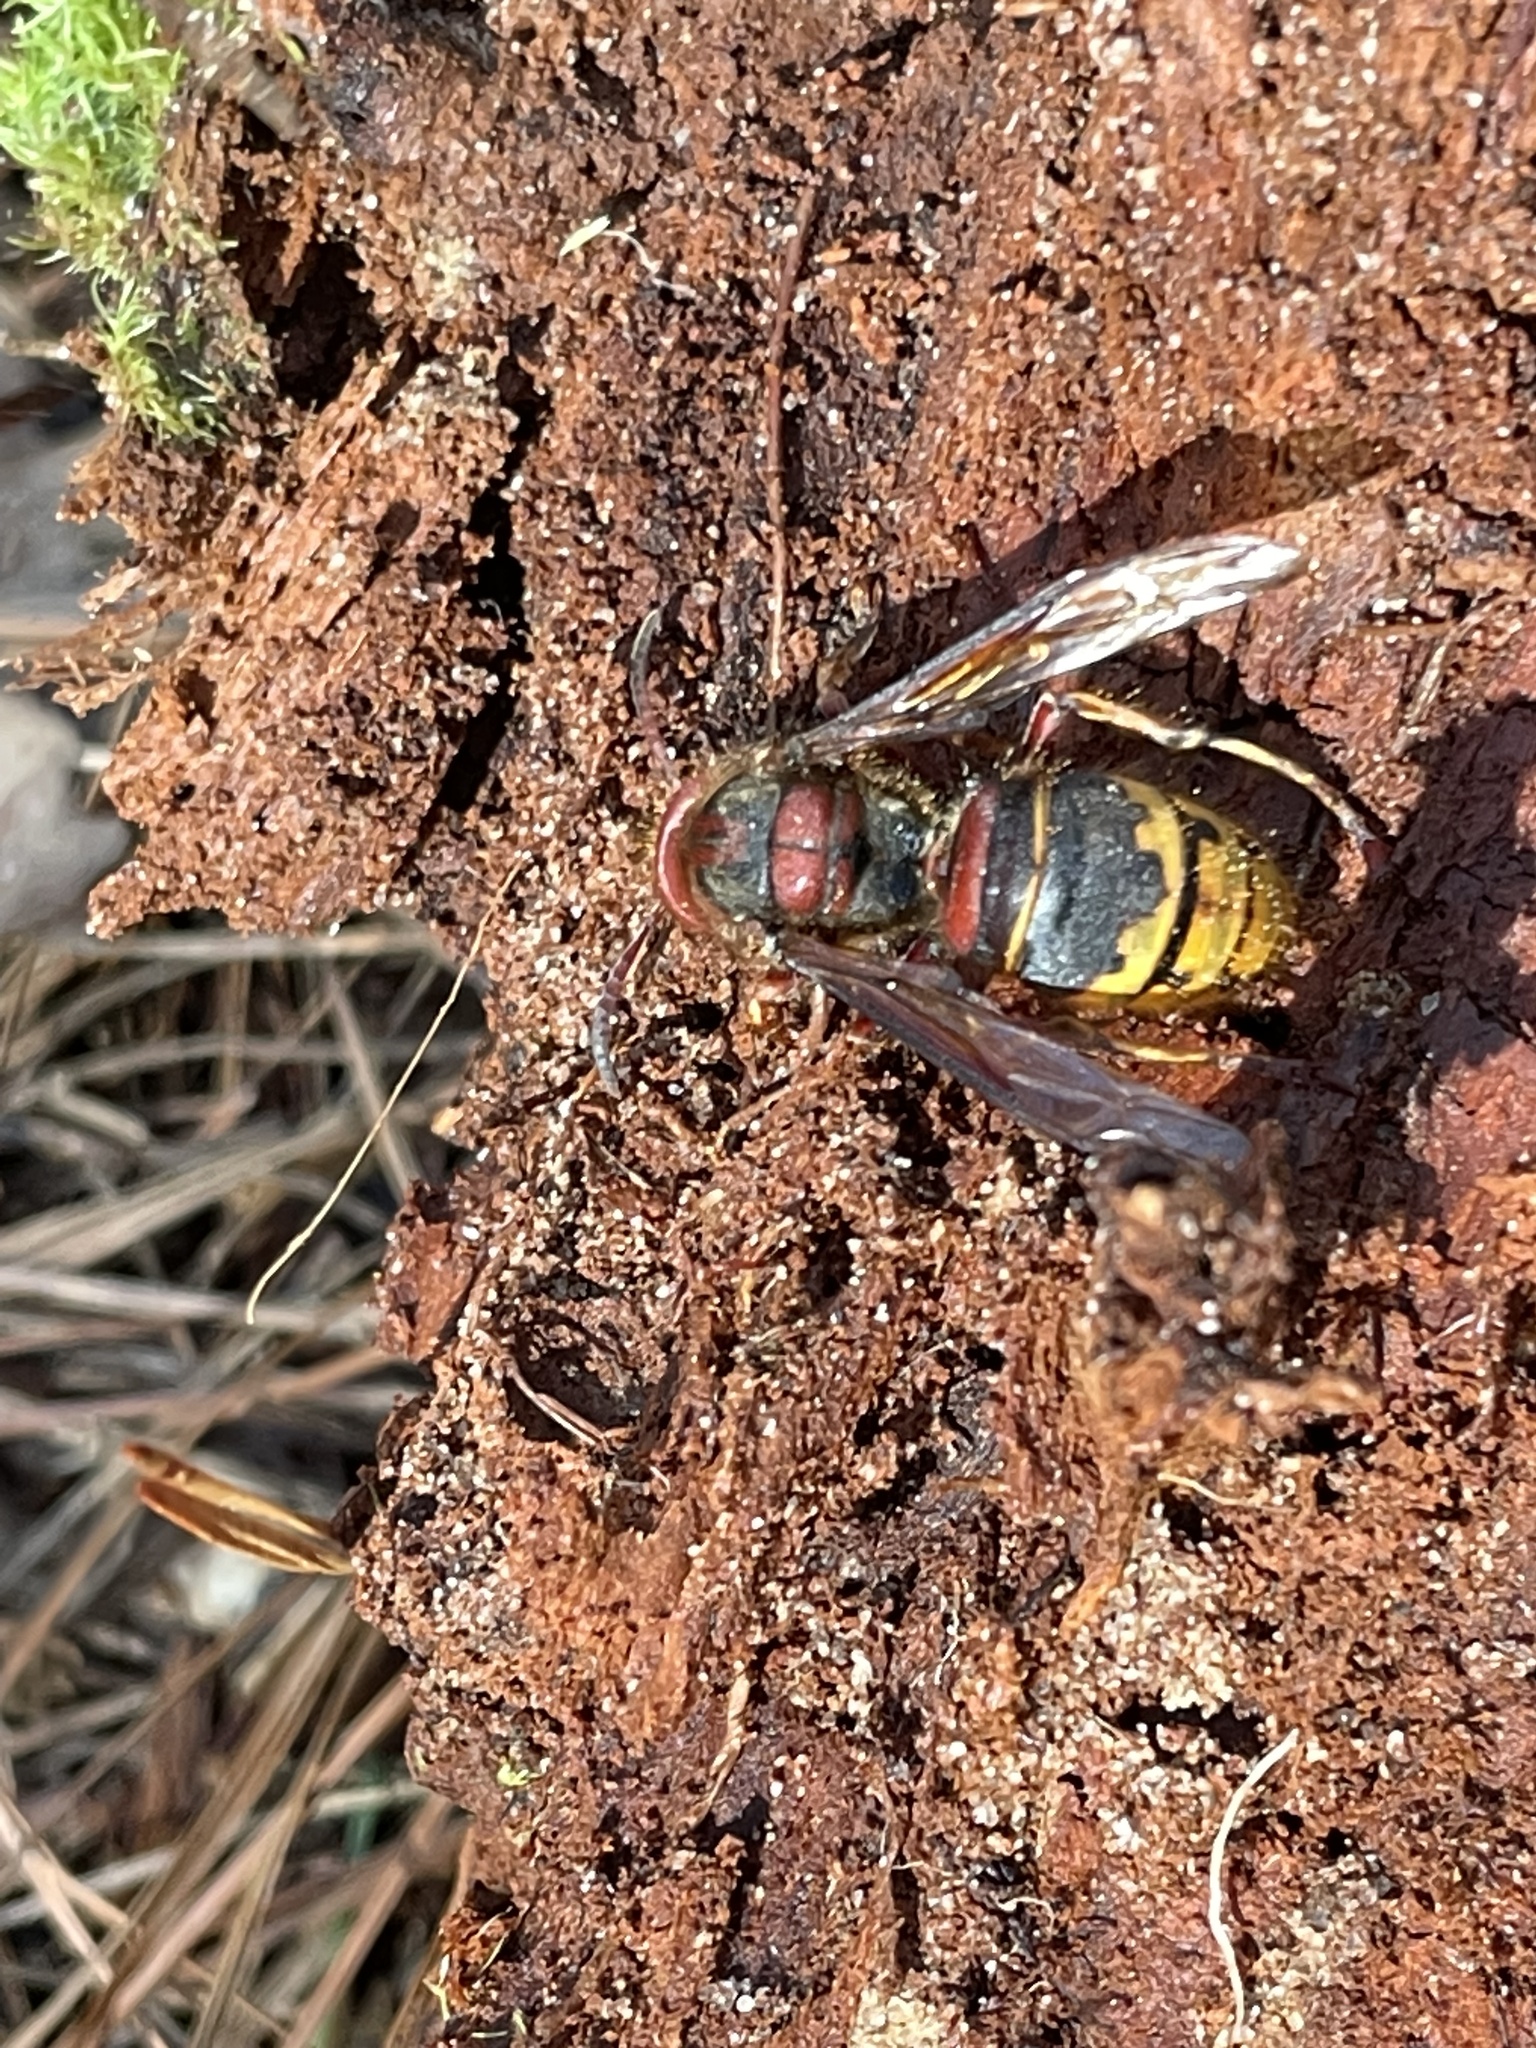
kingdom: Animalia
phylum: Arthropoda
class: Insecta
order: Hymenoptera
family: Vespidae
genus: Vespa
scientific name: Vespa crabro
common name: Hornet
